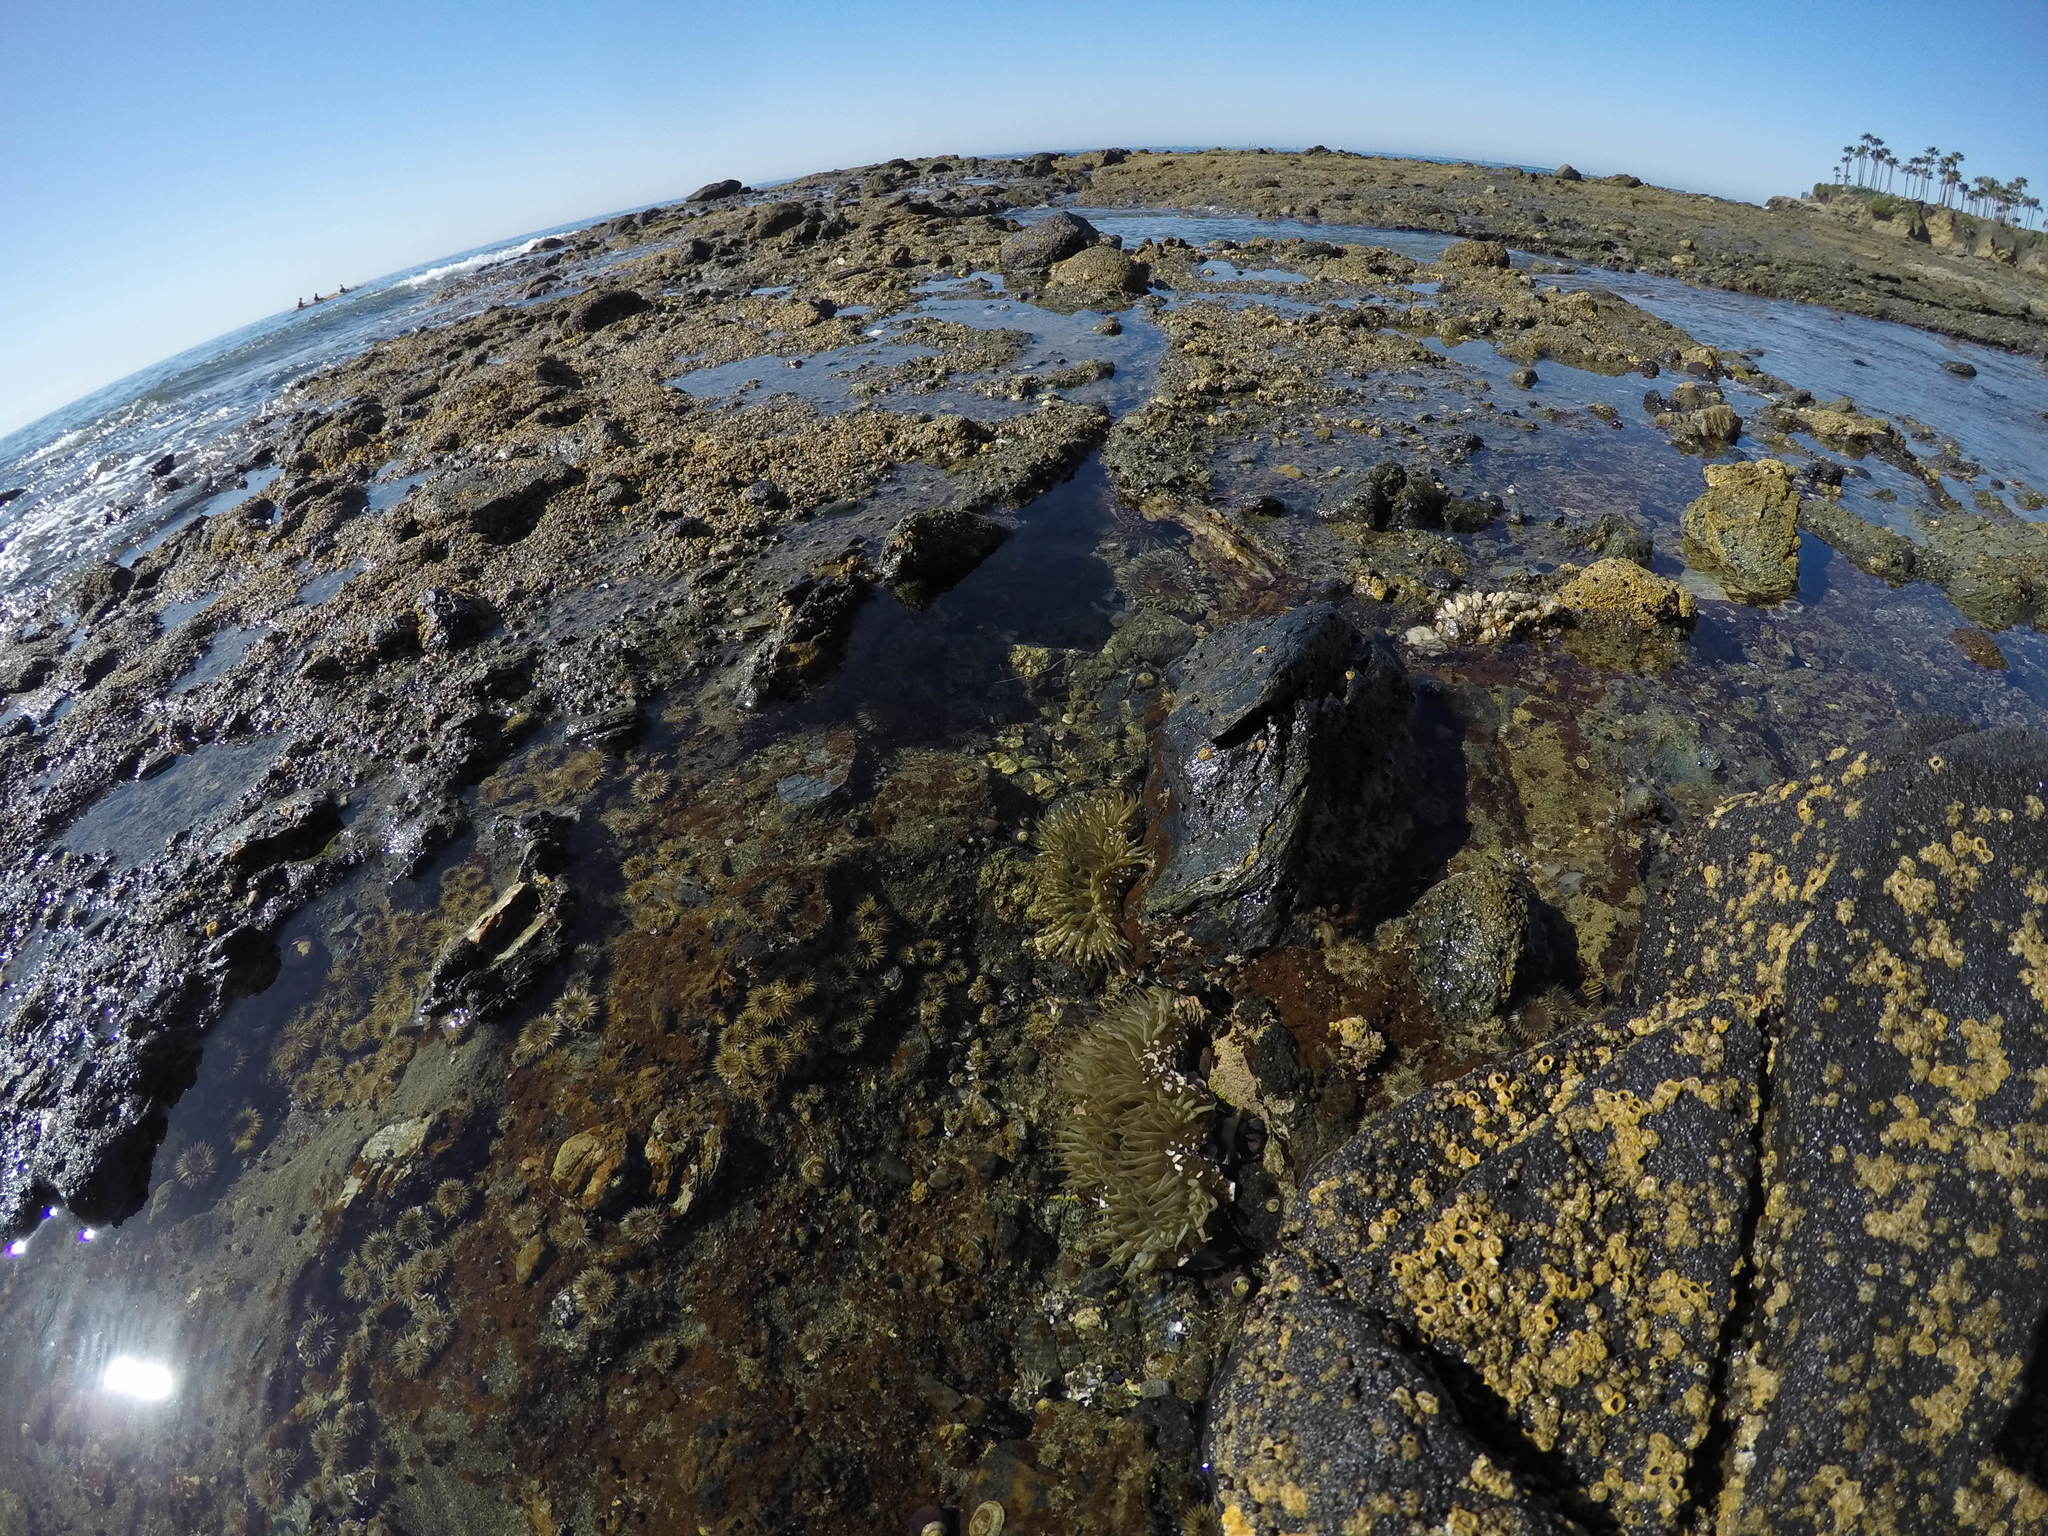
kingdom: Animalia
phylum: Cnidaria
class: Anthozoa
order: Actiniaria
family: Actiniidae
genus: Anthopleura
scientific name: Anthopleura sola
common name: Sun anemone
